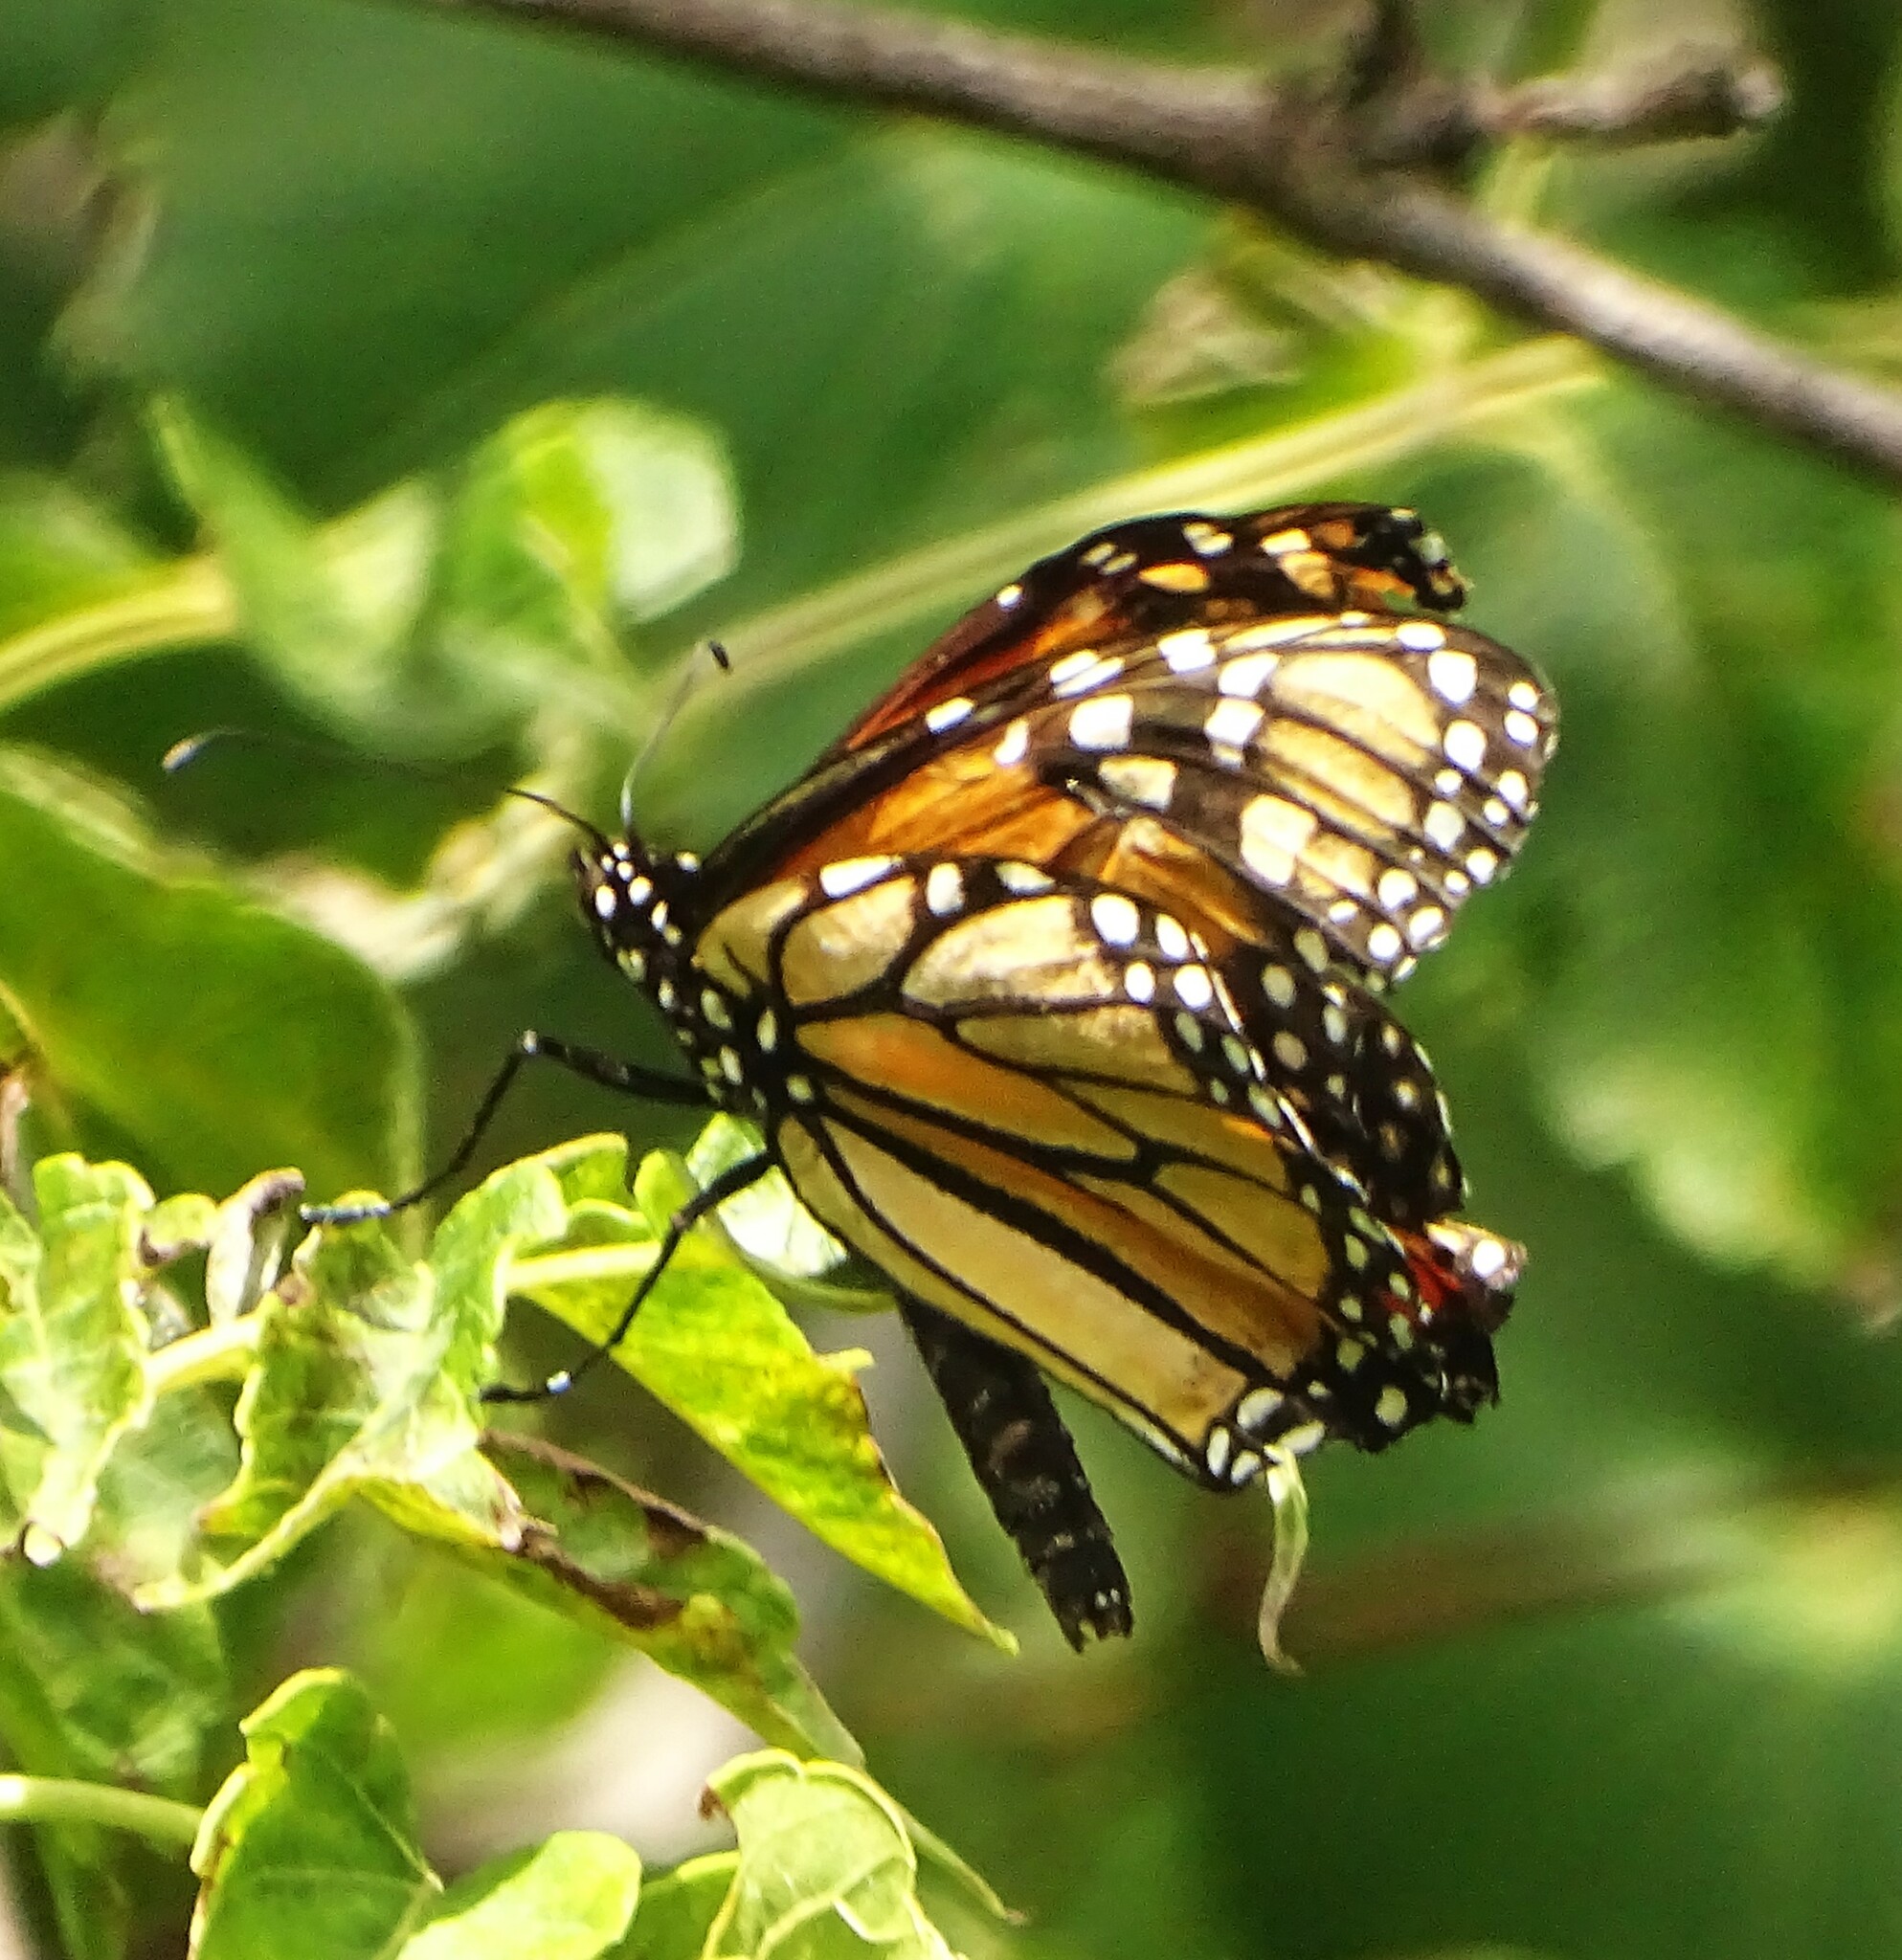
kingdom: Animalia
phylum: Arthropoda
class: Insecta
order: Lepidoptera
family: Nymphalidae
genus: Danaus
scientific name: Danaus plexippus
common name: Monarch
